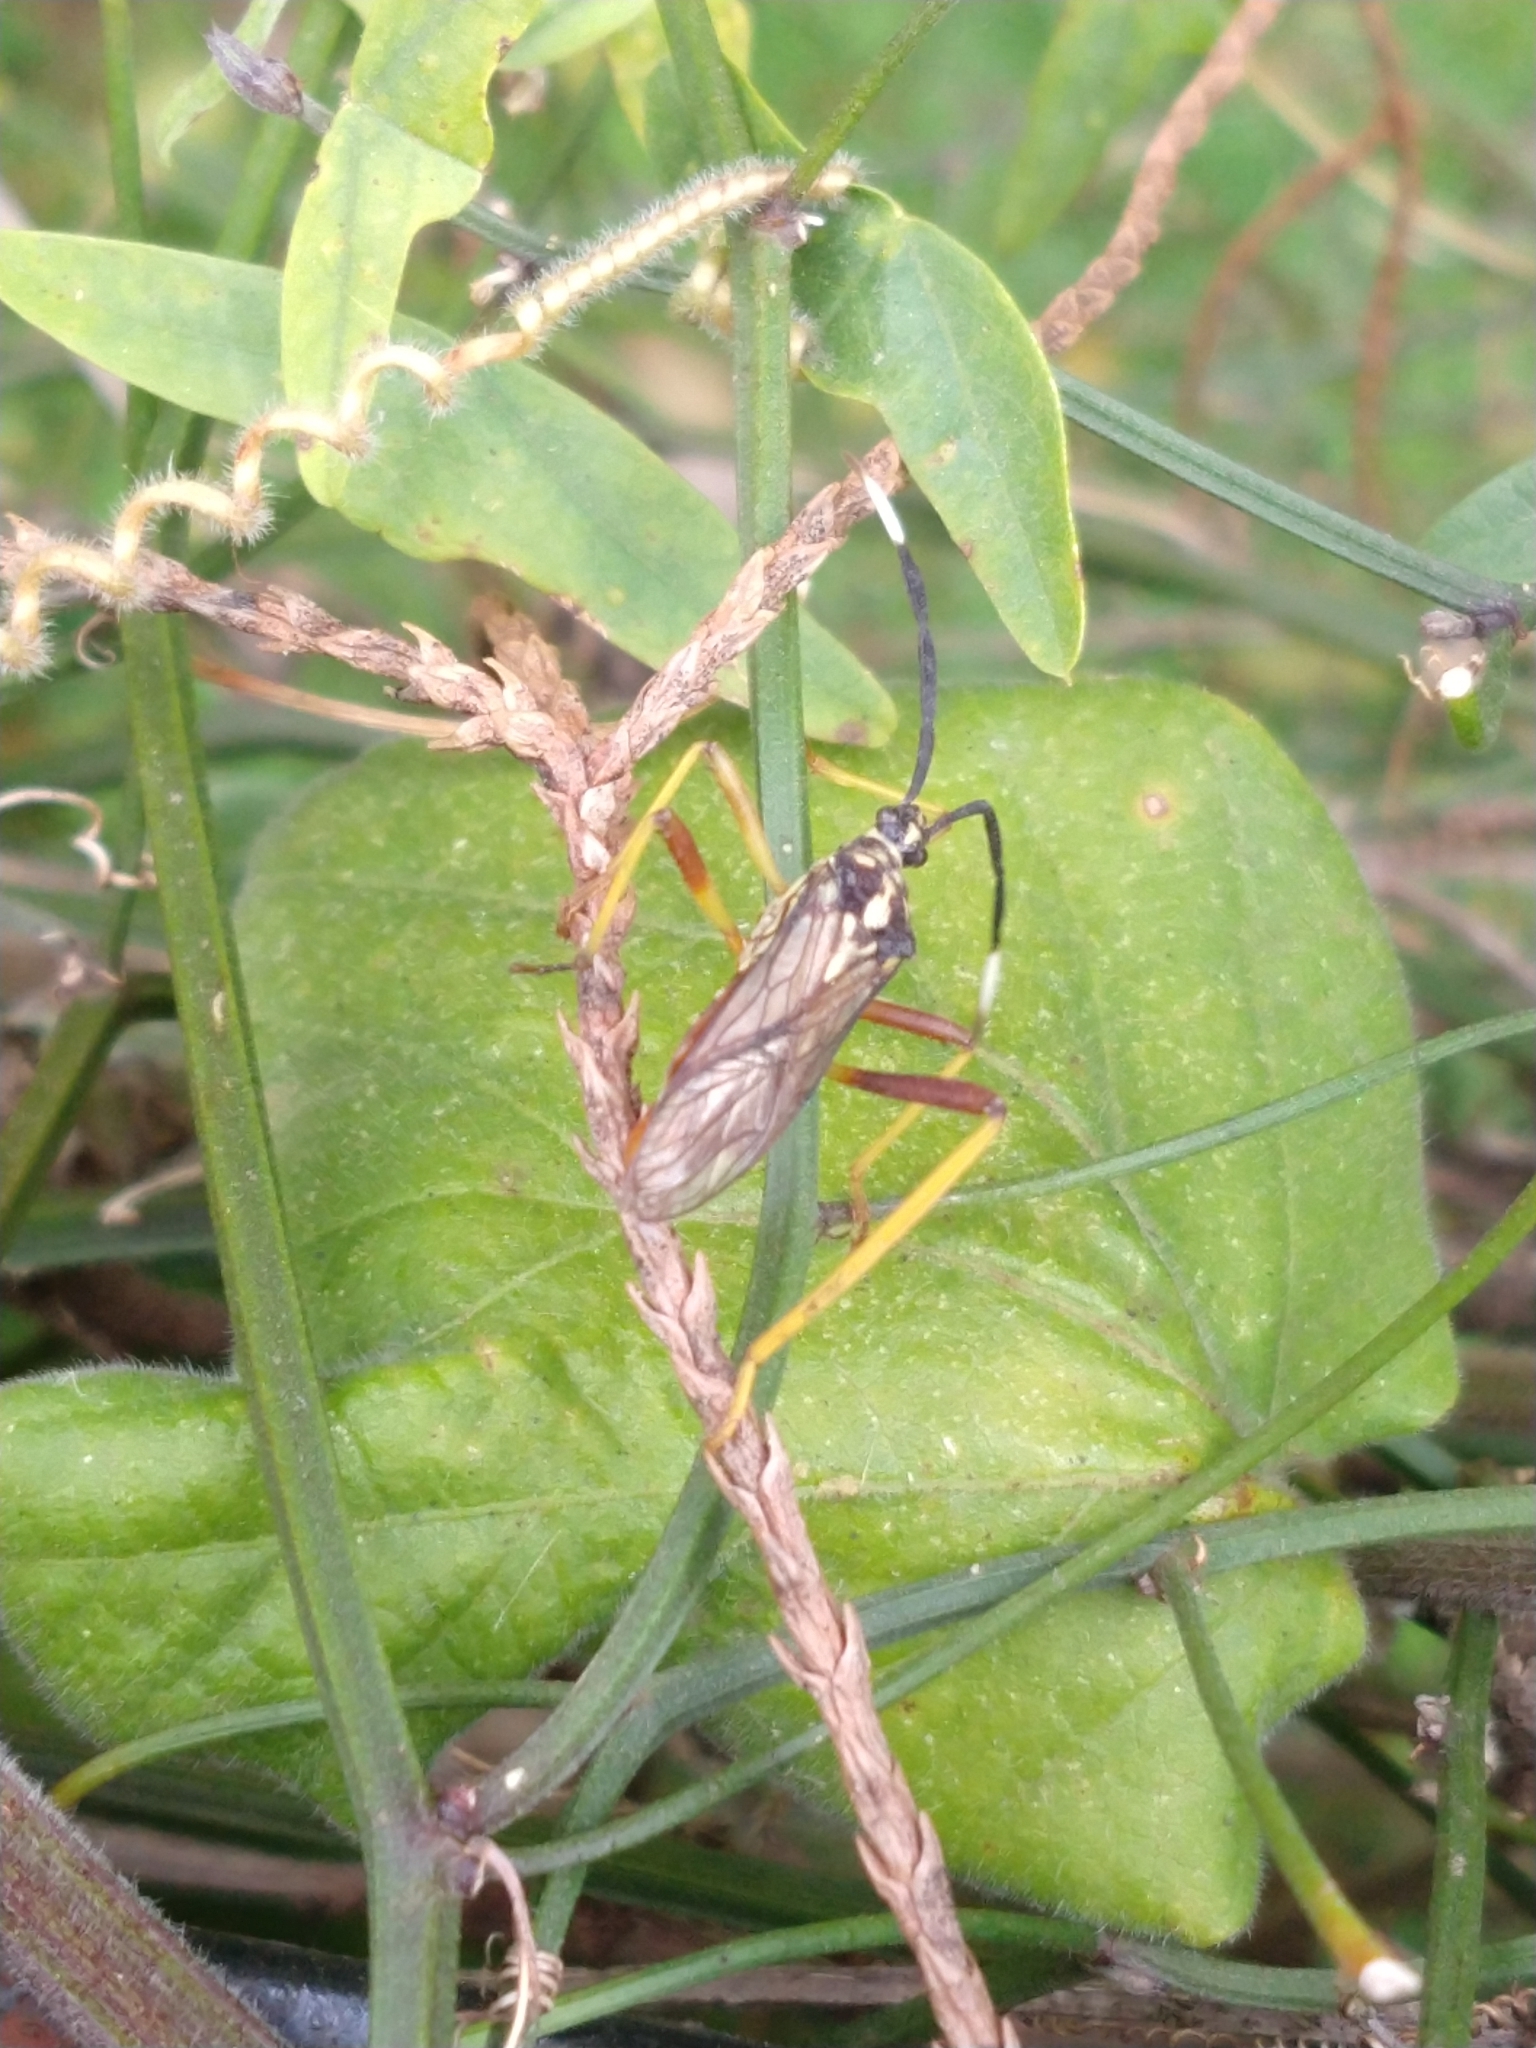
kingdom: Animalia
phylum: Arthropoda
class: Insecta
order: Hemiptera
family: Coreidae
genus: Holhymenia
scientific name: Holhymenia histrio
